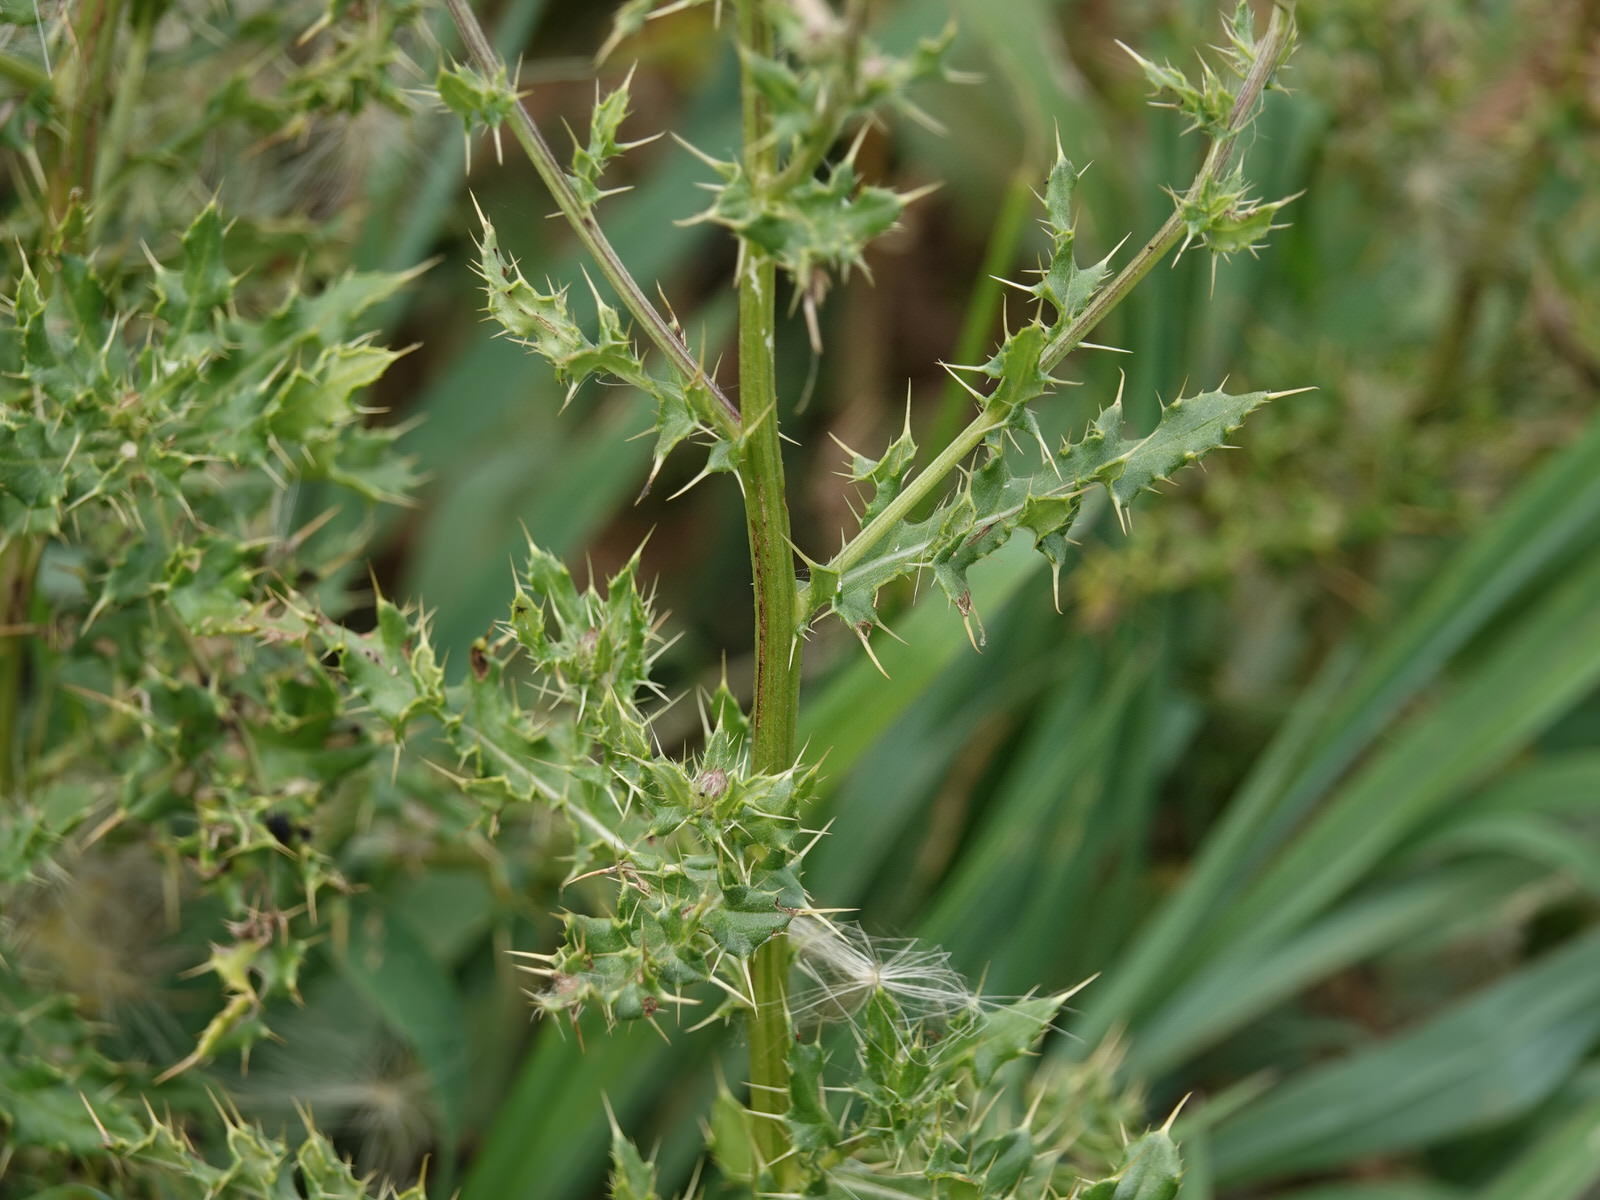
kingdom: Plantae
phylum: Tracheophyta
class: Magnoliopsida
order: Asterales
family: Asteraceae
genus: Cirsium
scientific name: Cirsium arvense
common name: Creeping thistle
